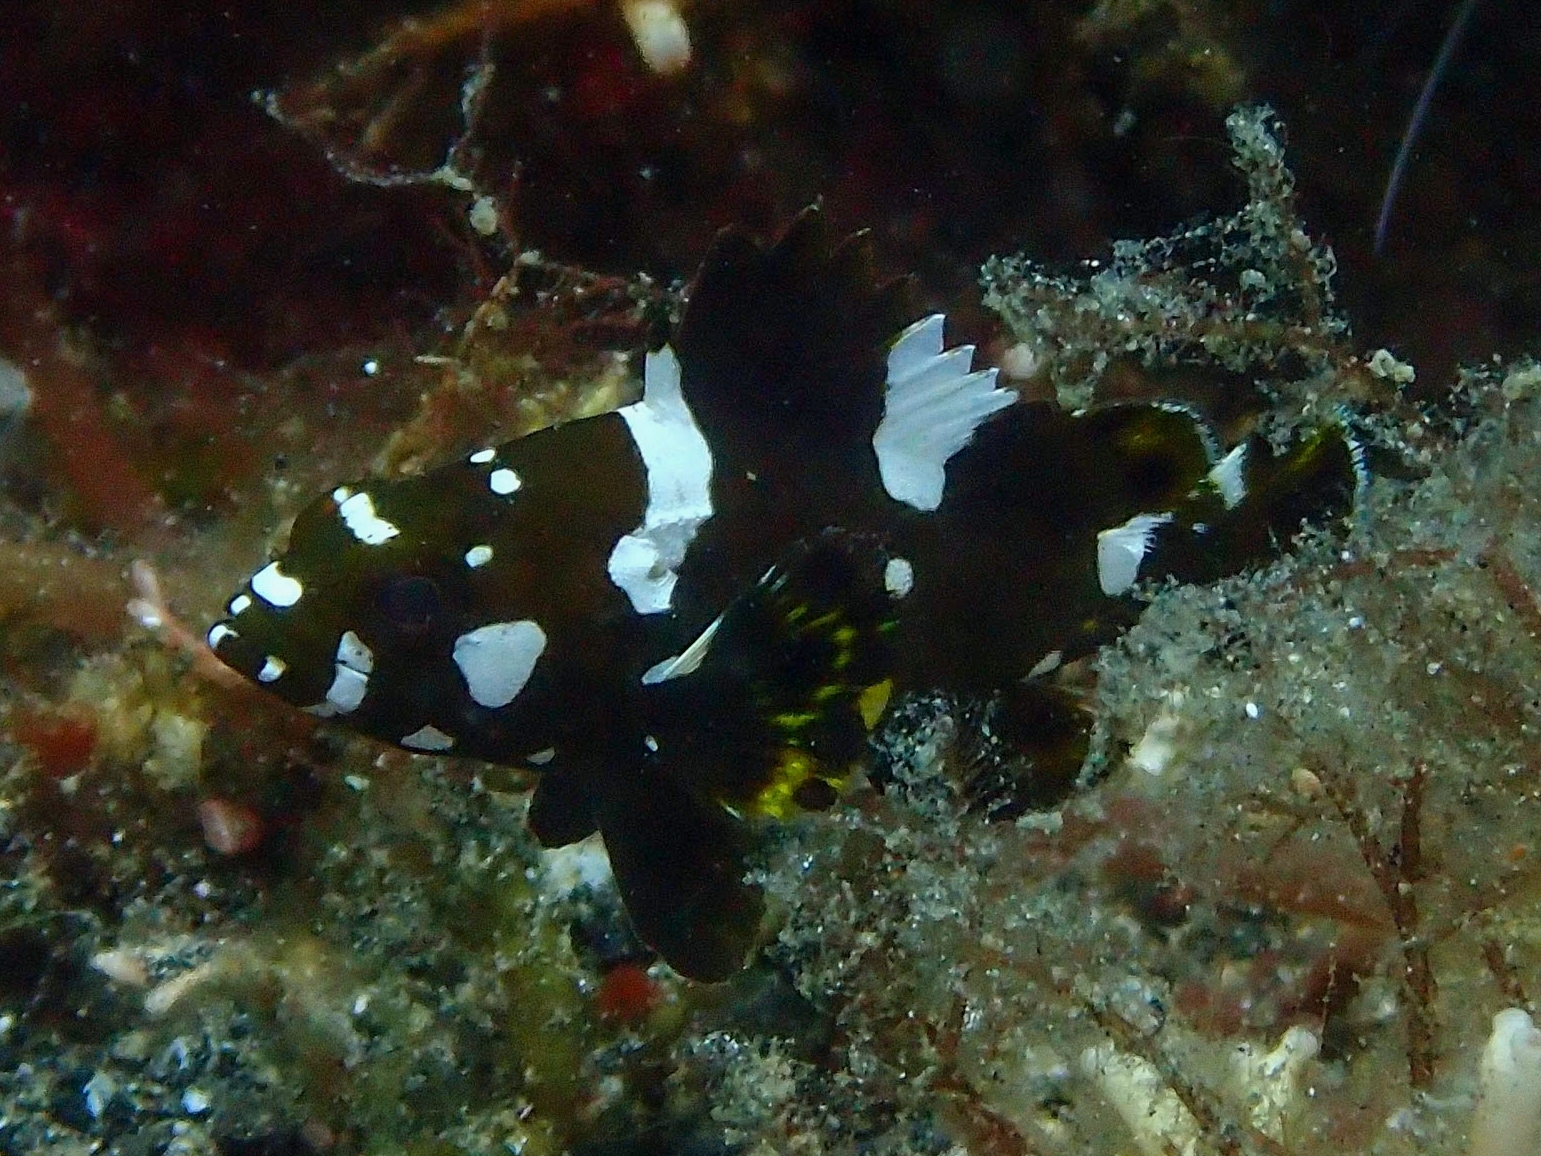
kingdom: Animalia
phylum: Chordata
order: Perciformes
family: Serranidae
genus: Epinephelus
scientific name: Epinephelus maculatus
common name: Highfin grouper
